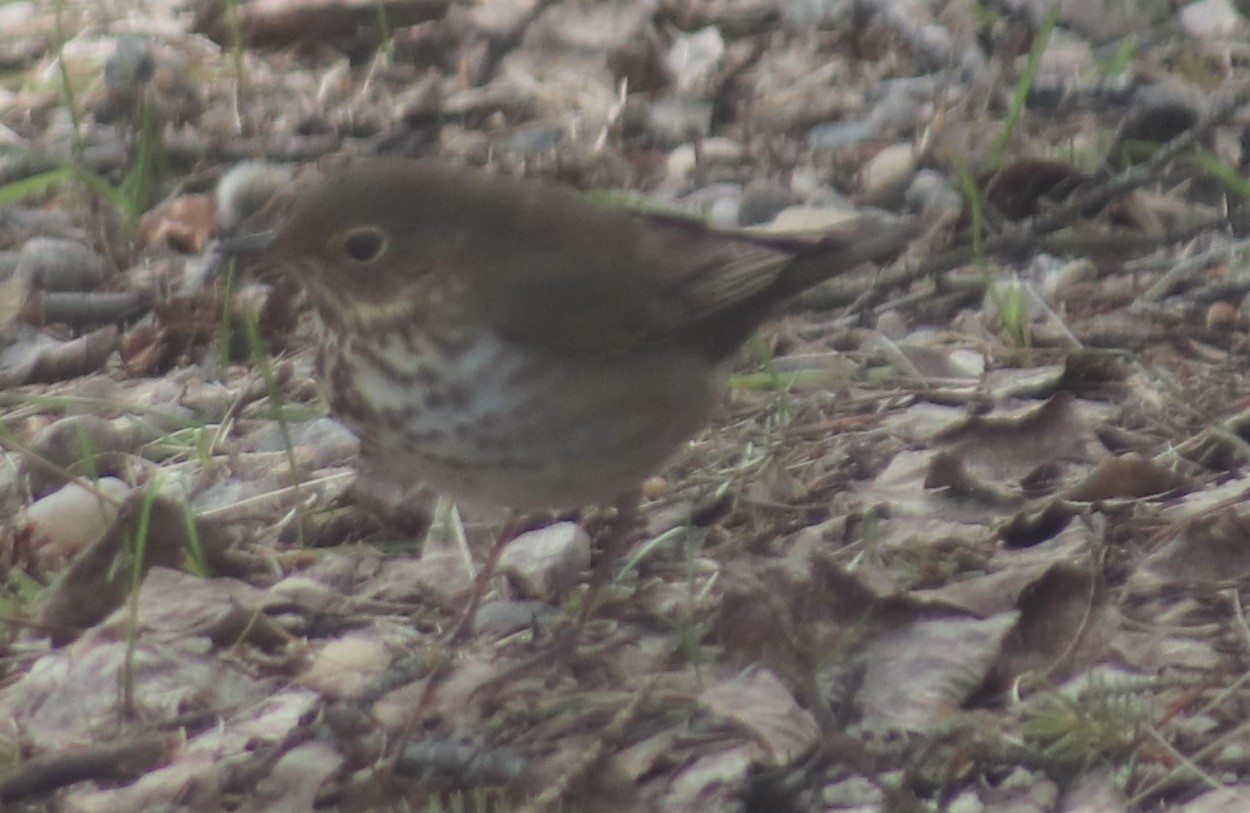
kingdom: Animalia
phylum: Chordata
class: Aves
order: Passeriformes
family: Turdidae
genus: Catharus
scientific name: Catharus ustulatus
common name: Swainson's thrush
